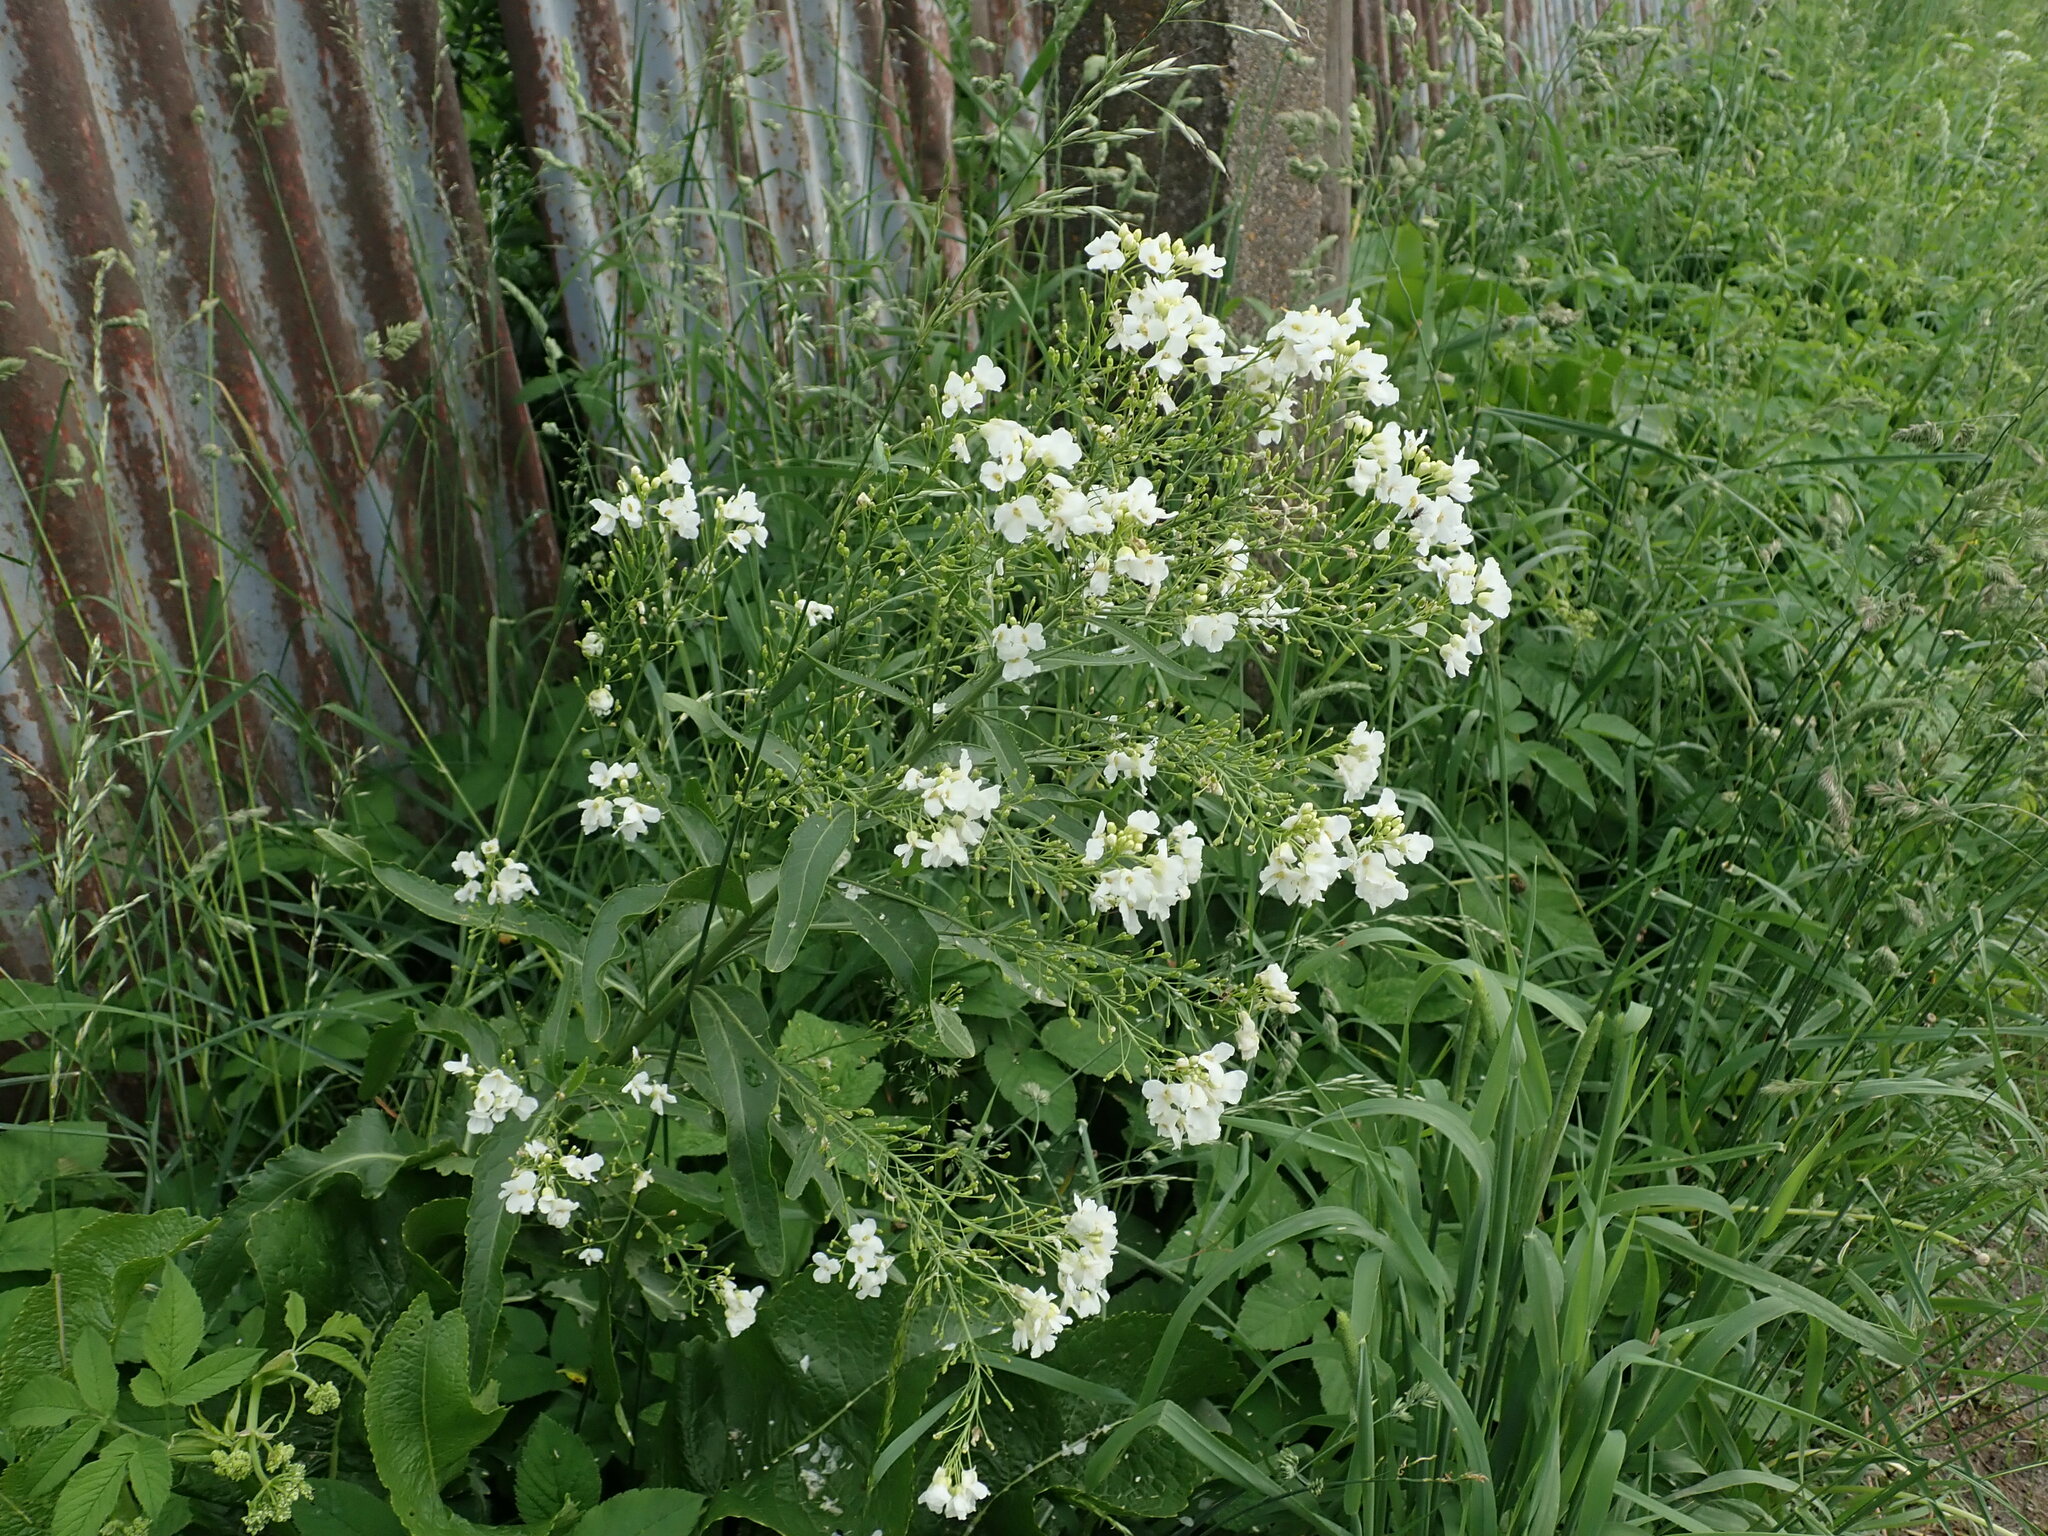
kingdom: Plantae
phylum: Tracheophyta
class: Magnoliopsida
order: Brassicales
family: Brassicaceae
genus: Armoracia
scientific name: Armoracia rusticana
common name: Horseradish
